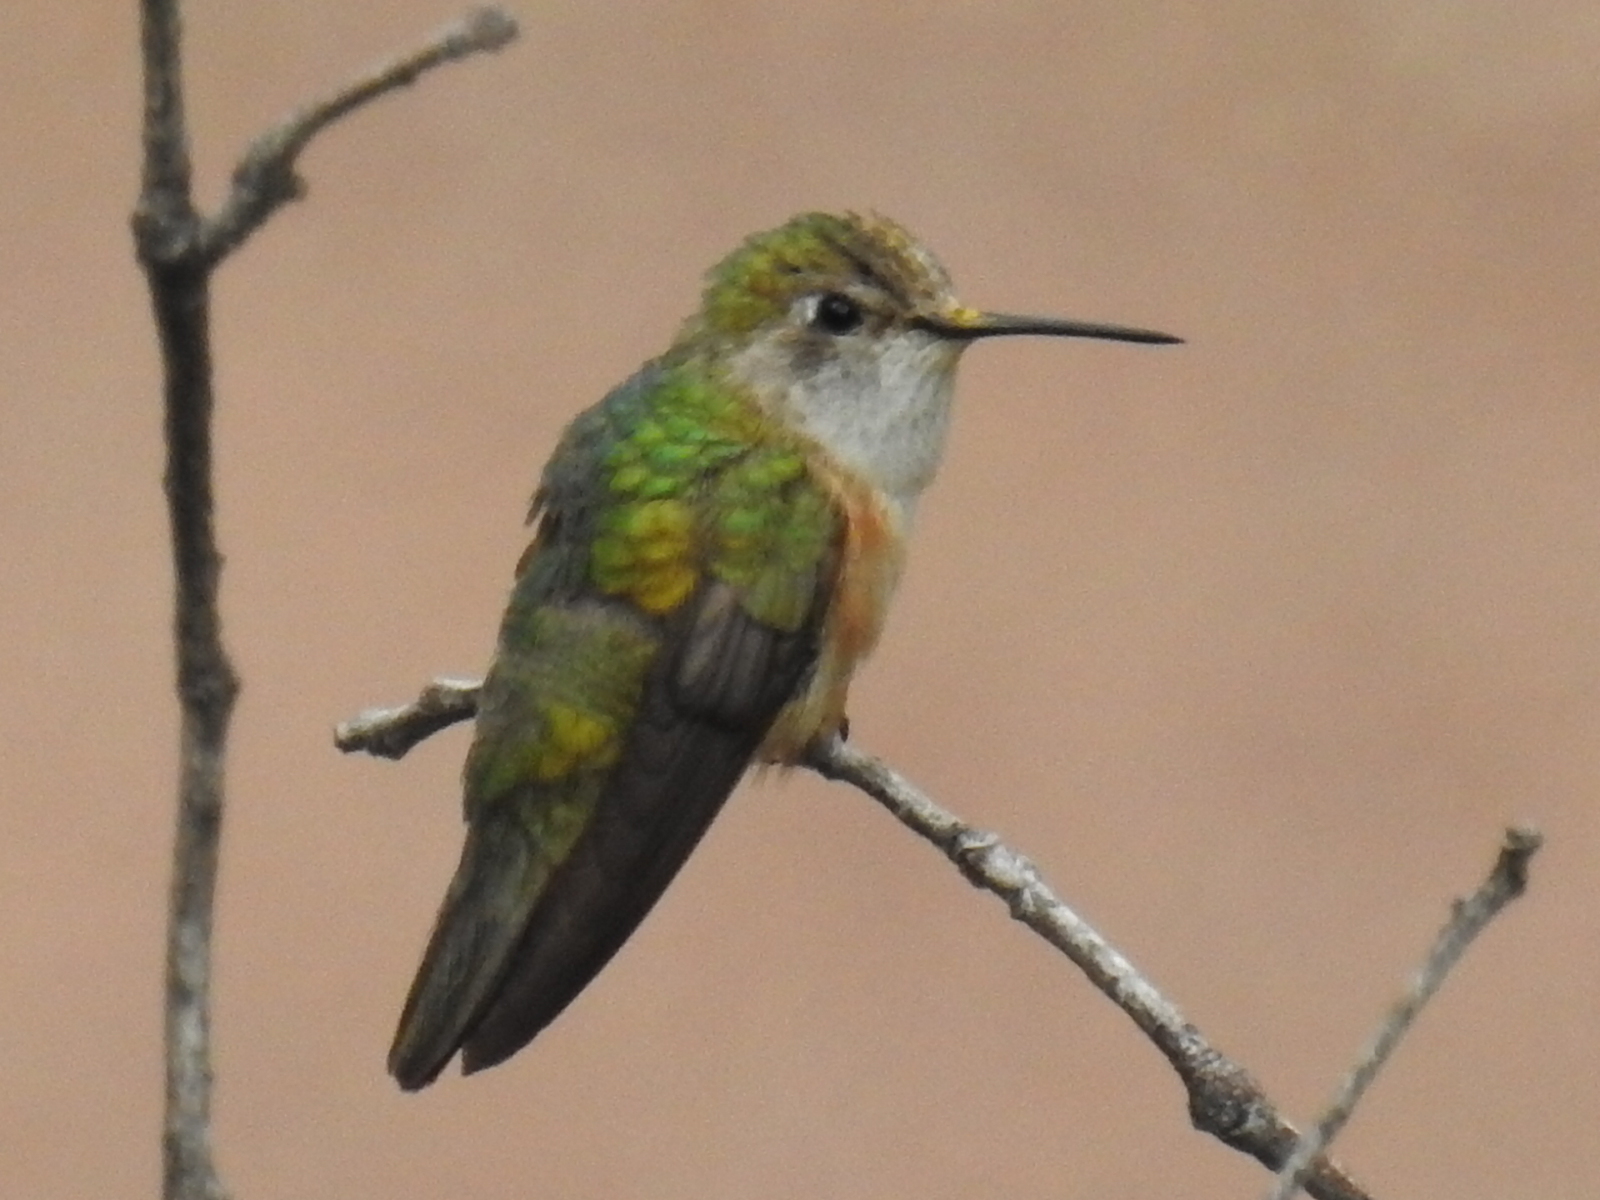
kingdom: Animalia
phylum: Chordata
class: Aves
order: Apodiformes
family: Trochilidae
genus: Selasphorus
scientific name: Selasphorus
